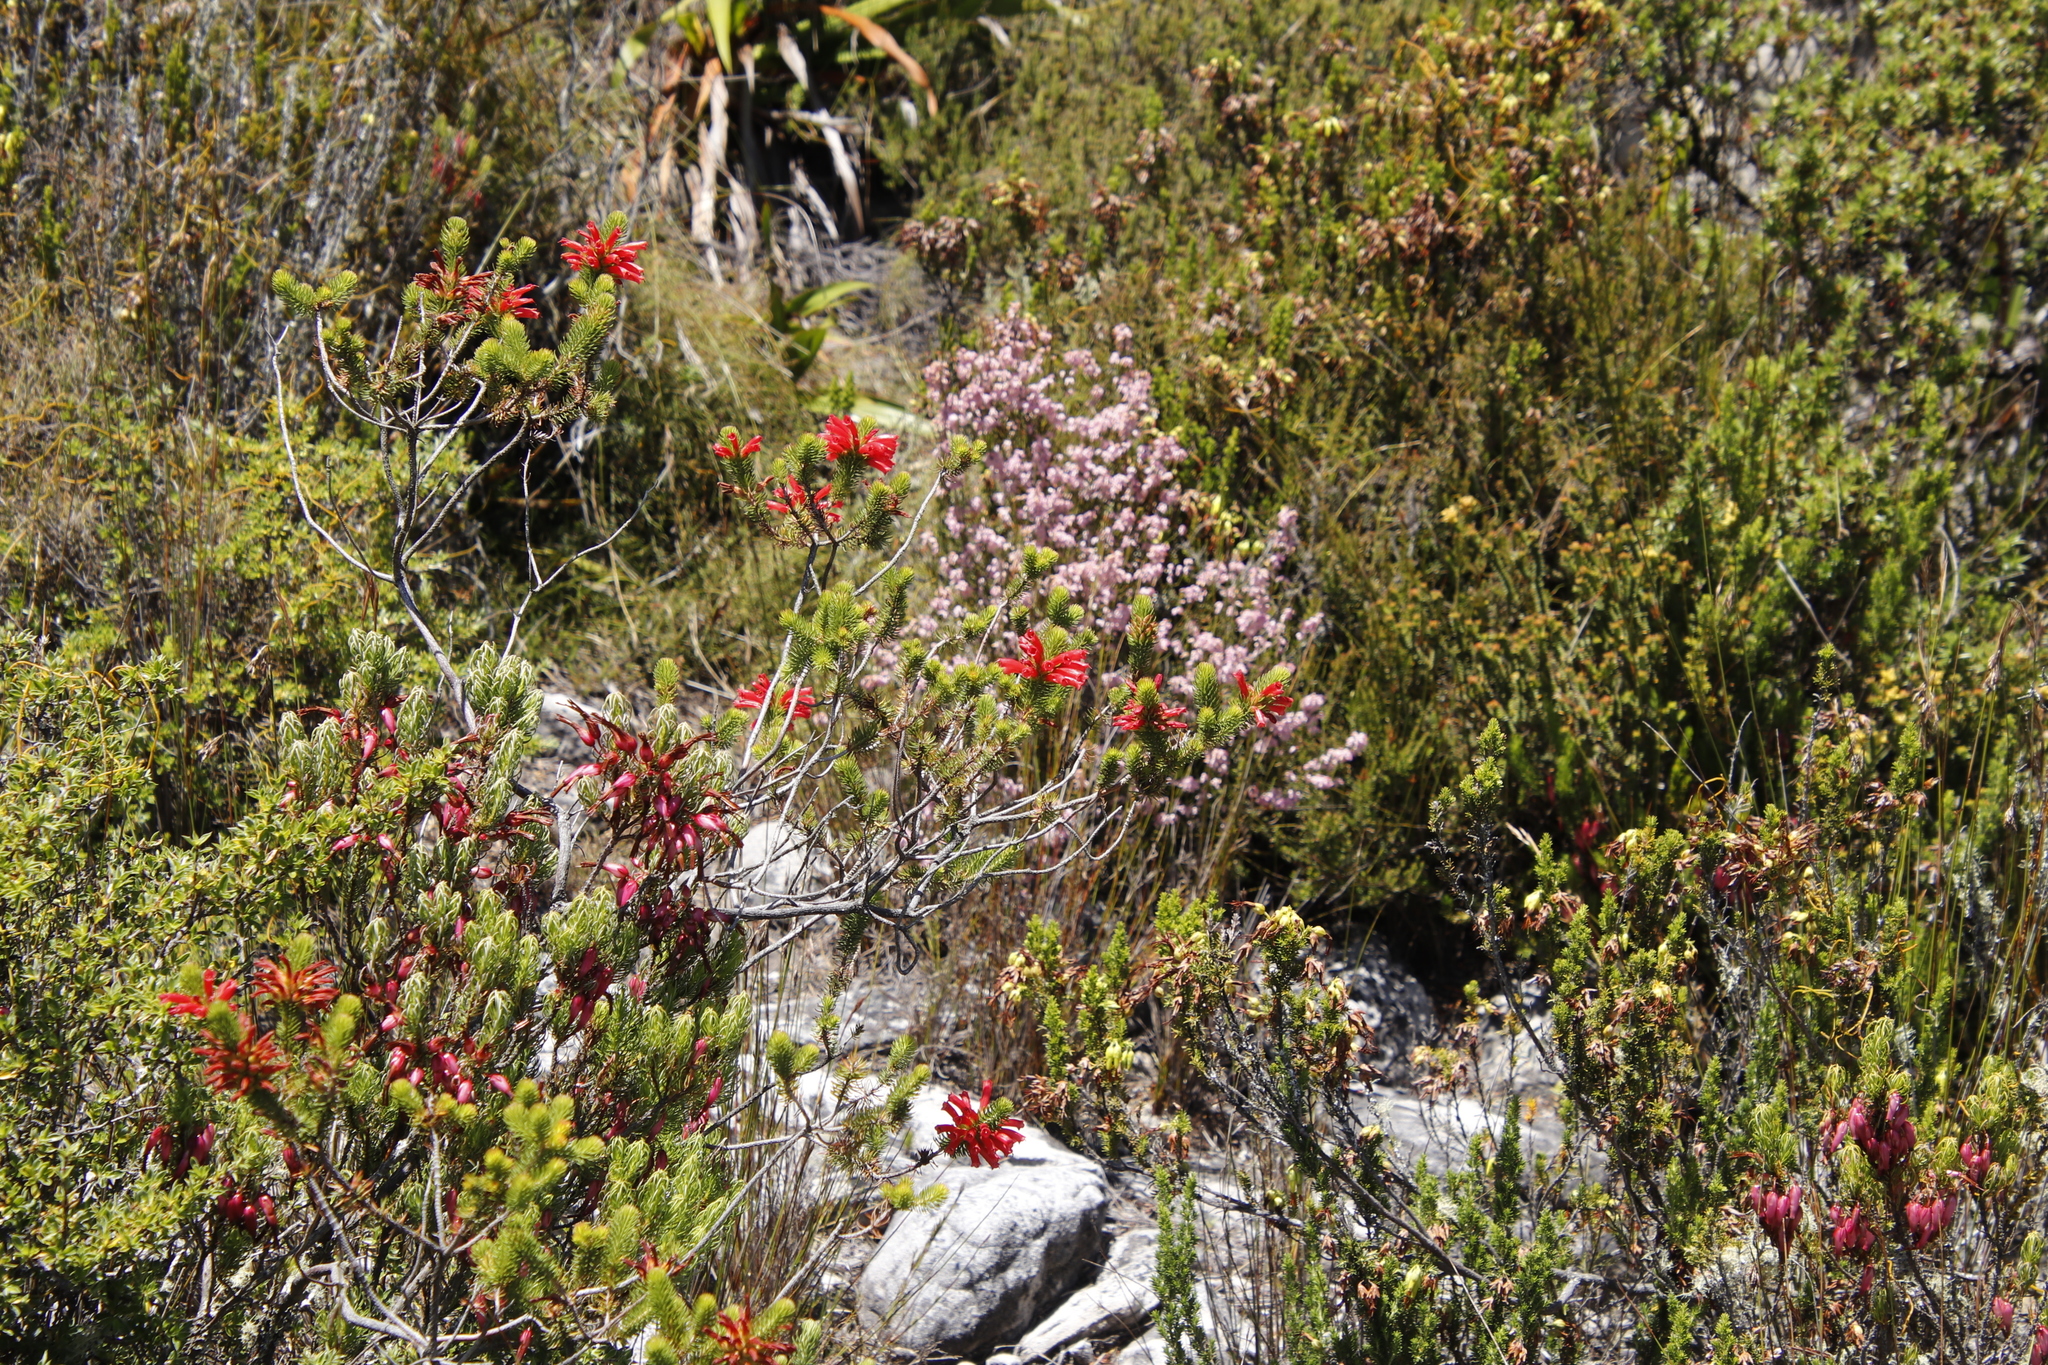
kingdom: Plantae
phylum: Tracheophyta
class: Magnoliopsida
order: Ericales
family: Ericaceae
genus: Erica
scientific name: Erica abietina
